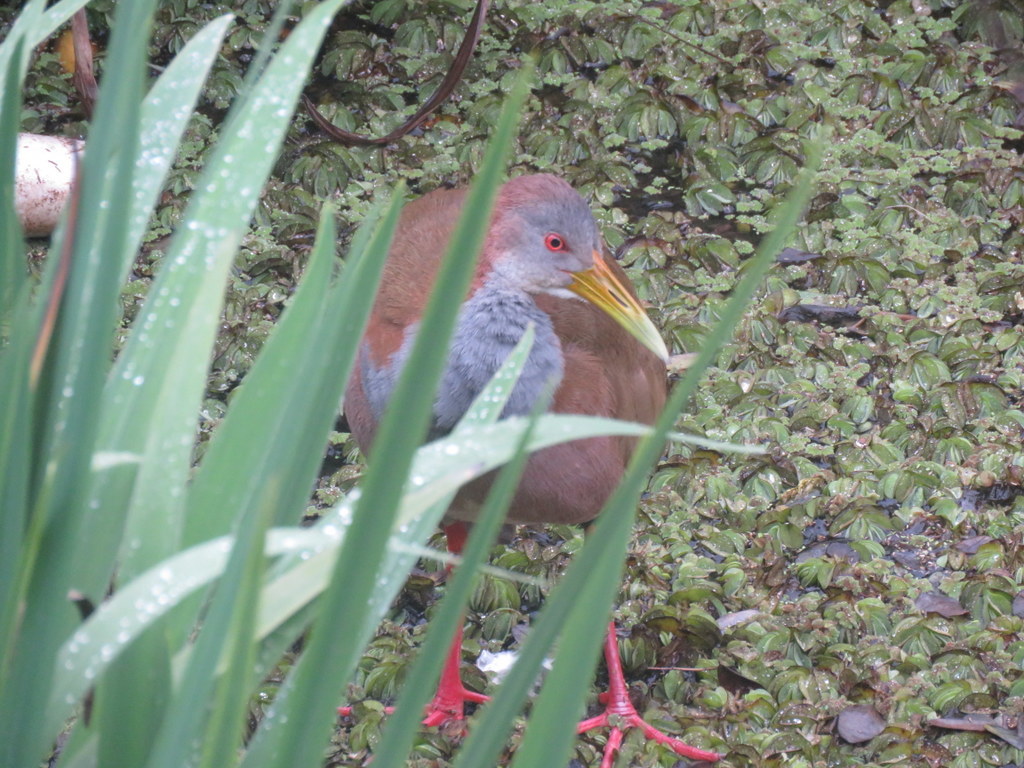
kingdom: Animalia
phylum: Chordata
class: Aves
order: Gruiformes
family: Rallidae
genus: Aramides
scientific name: Aramides ypecaha
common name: Giant wood rail
